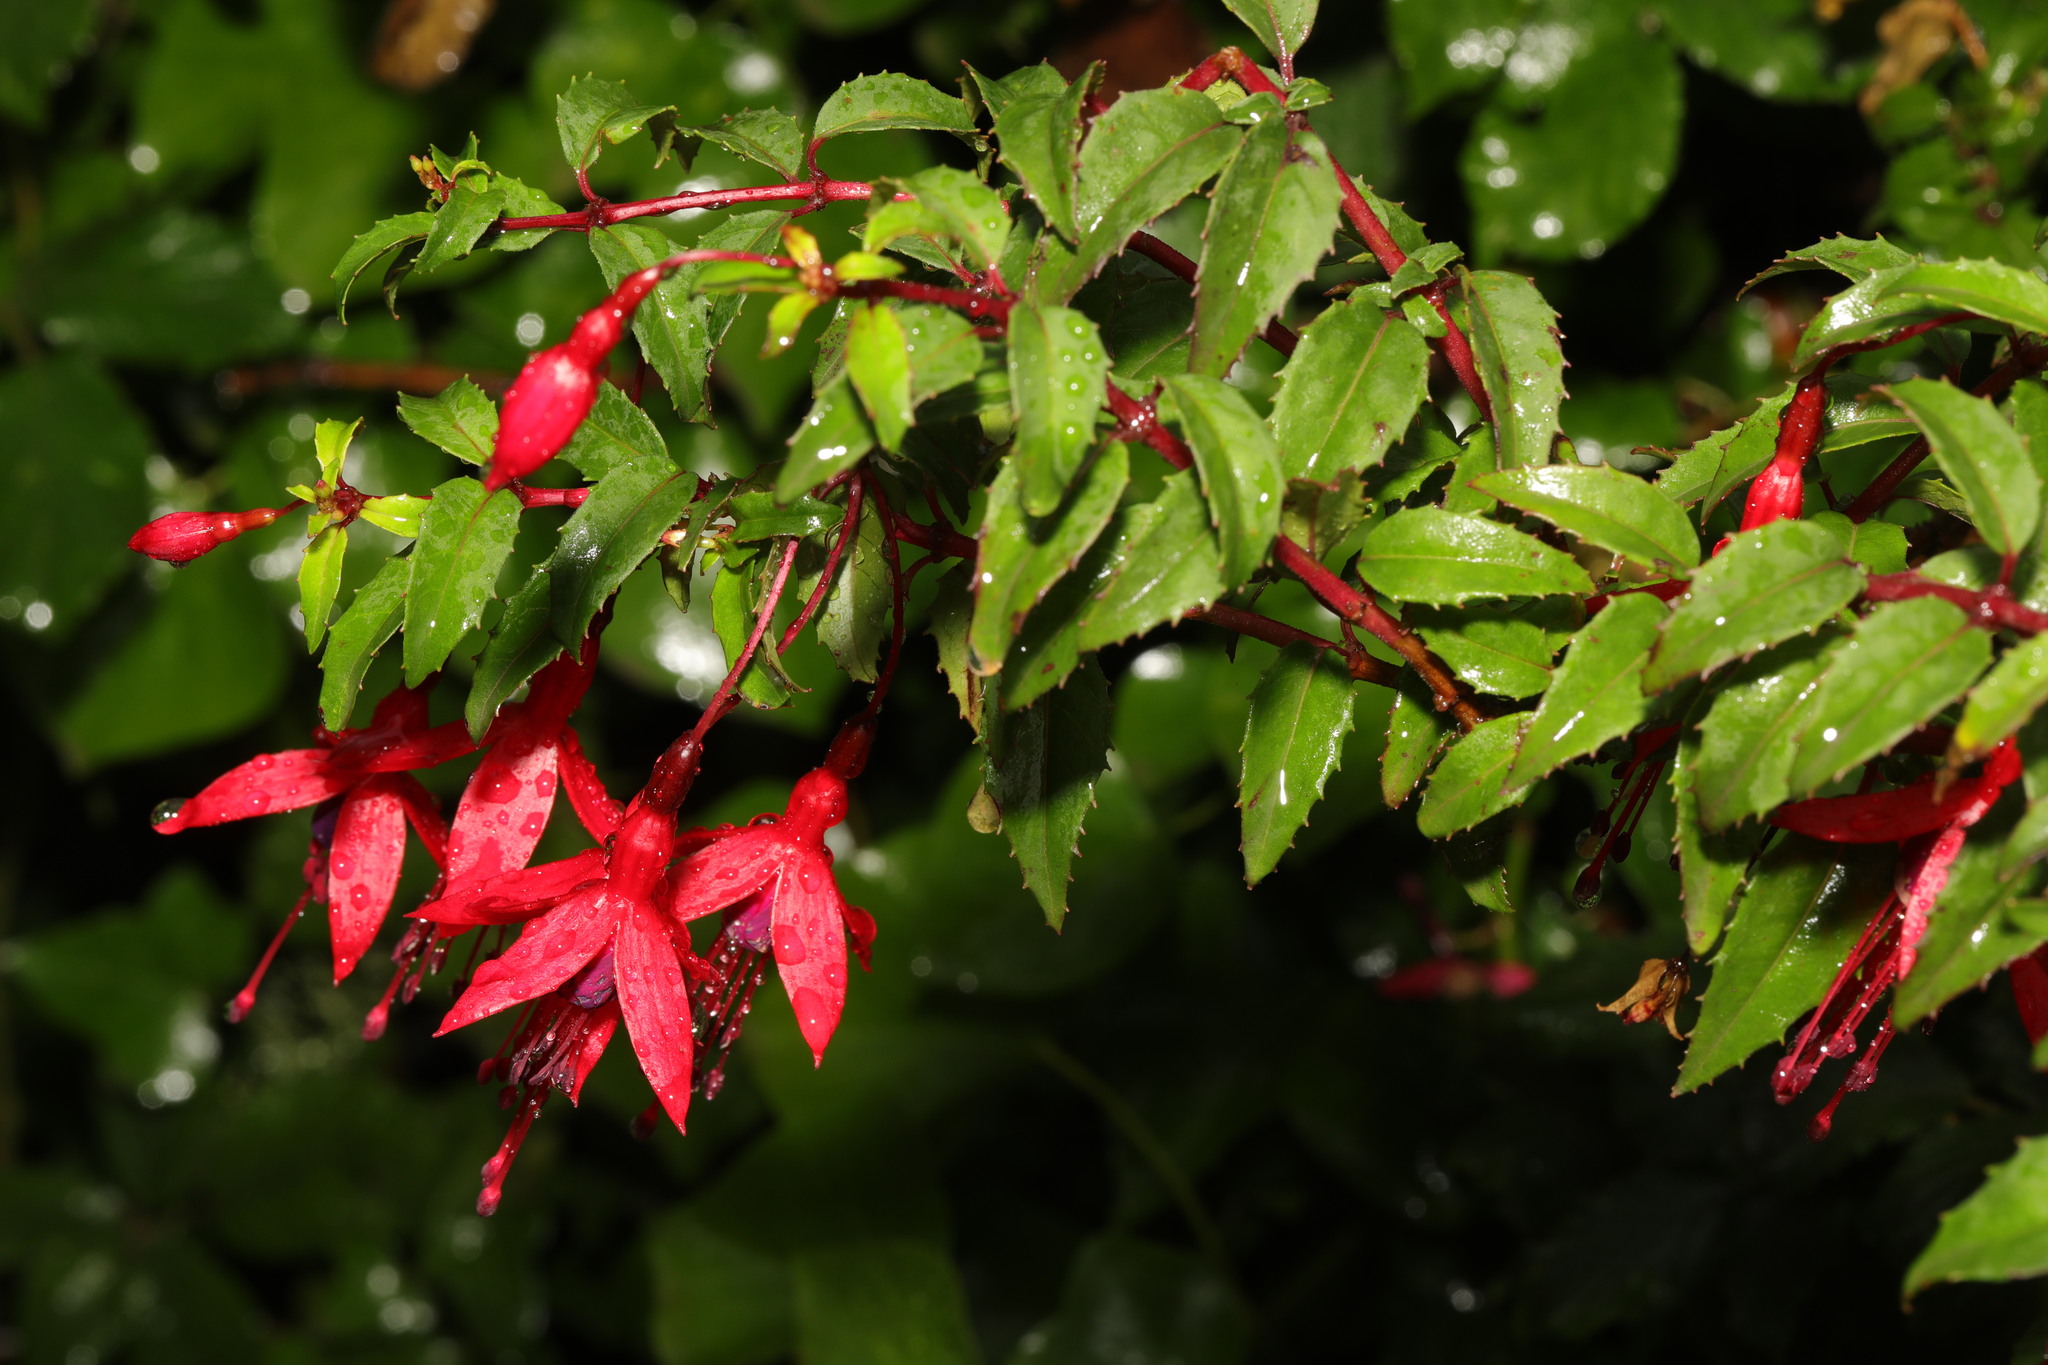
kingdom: Plantae
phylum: Tracheophyta
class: Magnoliopsida
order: Myrtales
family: Onagraceae
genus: Fuchsia
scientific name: Fuchsia magellanica
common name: Hardy fuchsia
